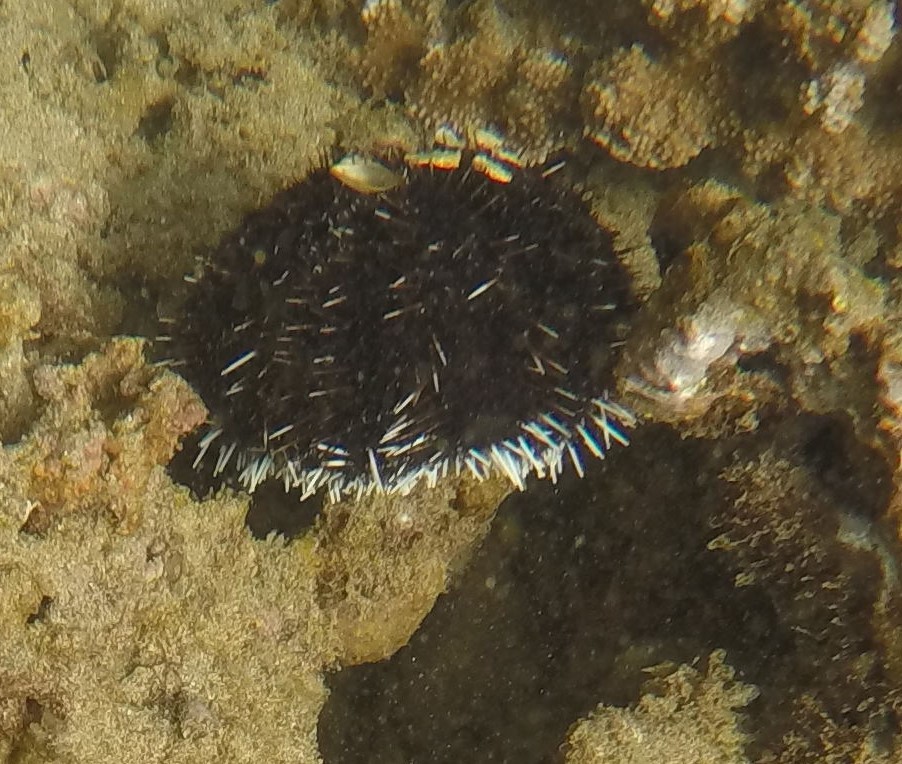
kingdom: Animalia
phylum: Echinodermata
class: Echinoidea
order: Camarodonta
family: Toxopneustidae
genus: Tripneustes
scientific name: Tripneustes gratilla
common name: Bischofsmützenseeigel
